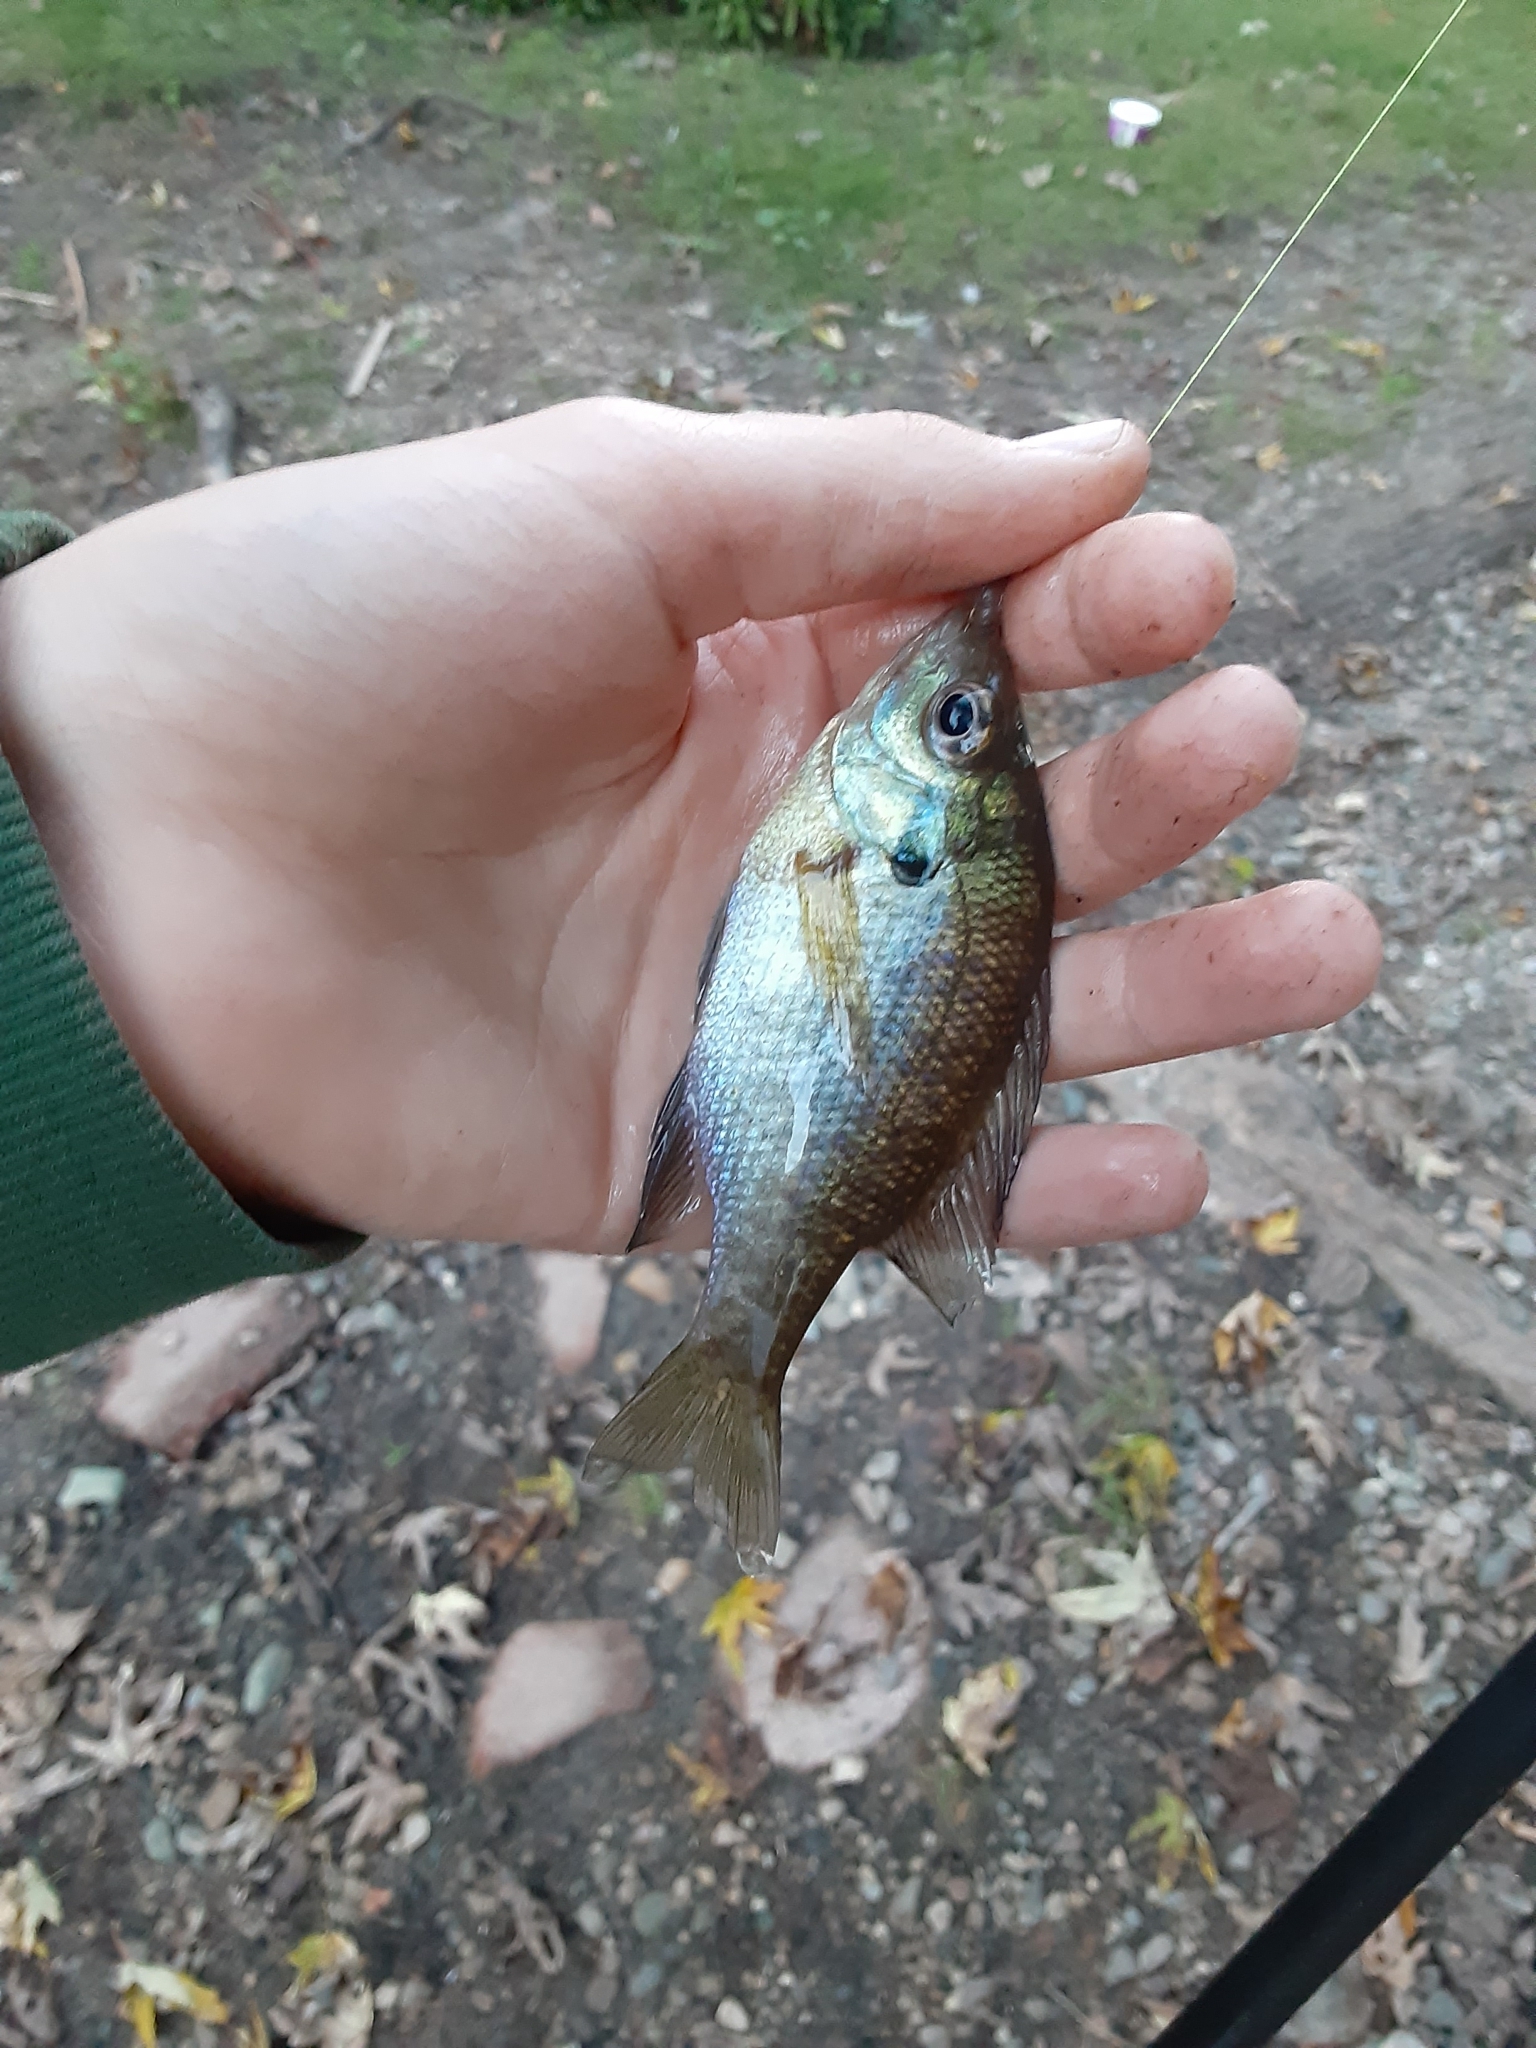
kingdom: Animalia
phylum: Chordata
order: Perciformes
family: Centrarchidae
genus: Lepomis
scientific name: Lepomis macrochirus
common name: Bluegill
